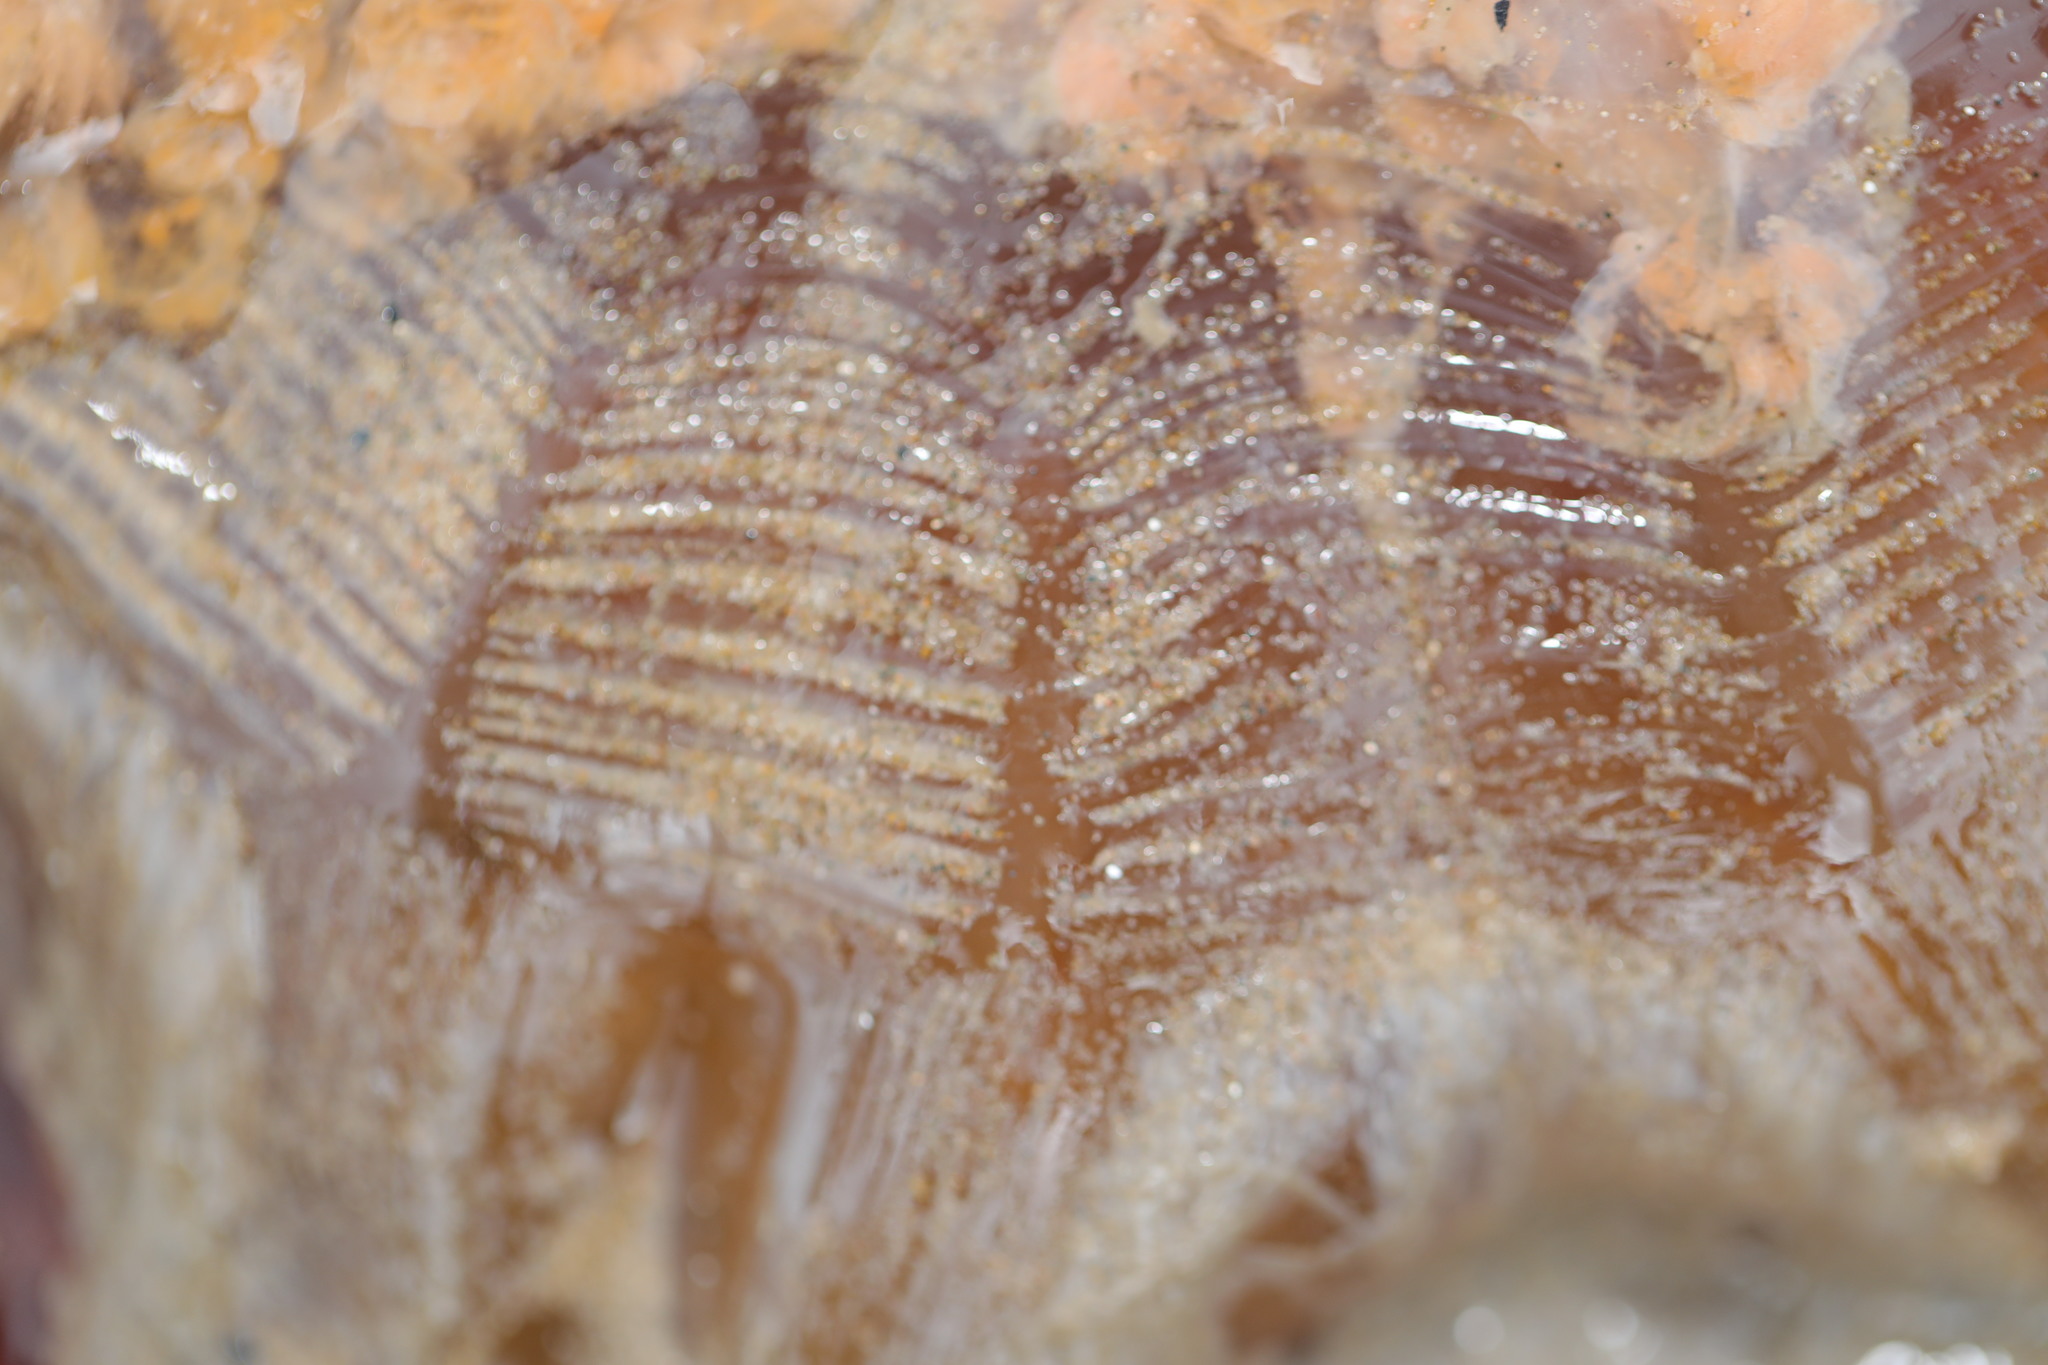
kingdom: Animalia
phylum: Cnidaria
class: Scyphozoa
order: Semaeostomeae
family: Cyaneidae
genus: Cyanea
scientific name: Cyanea capillata
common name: Lion's mane jellyfish
